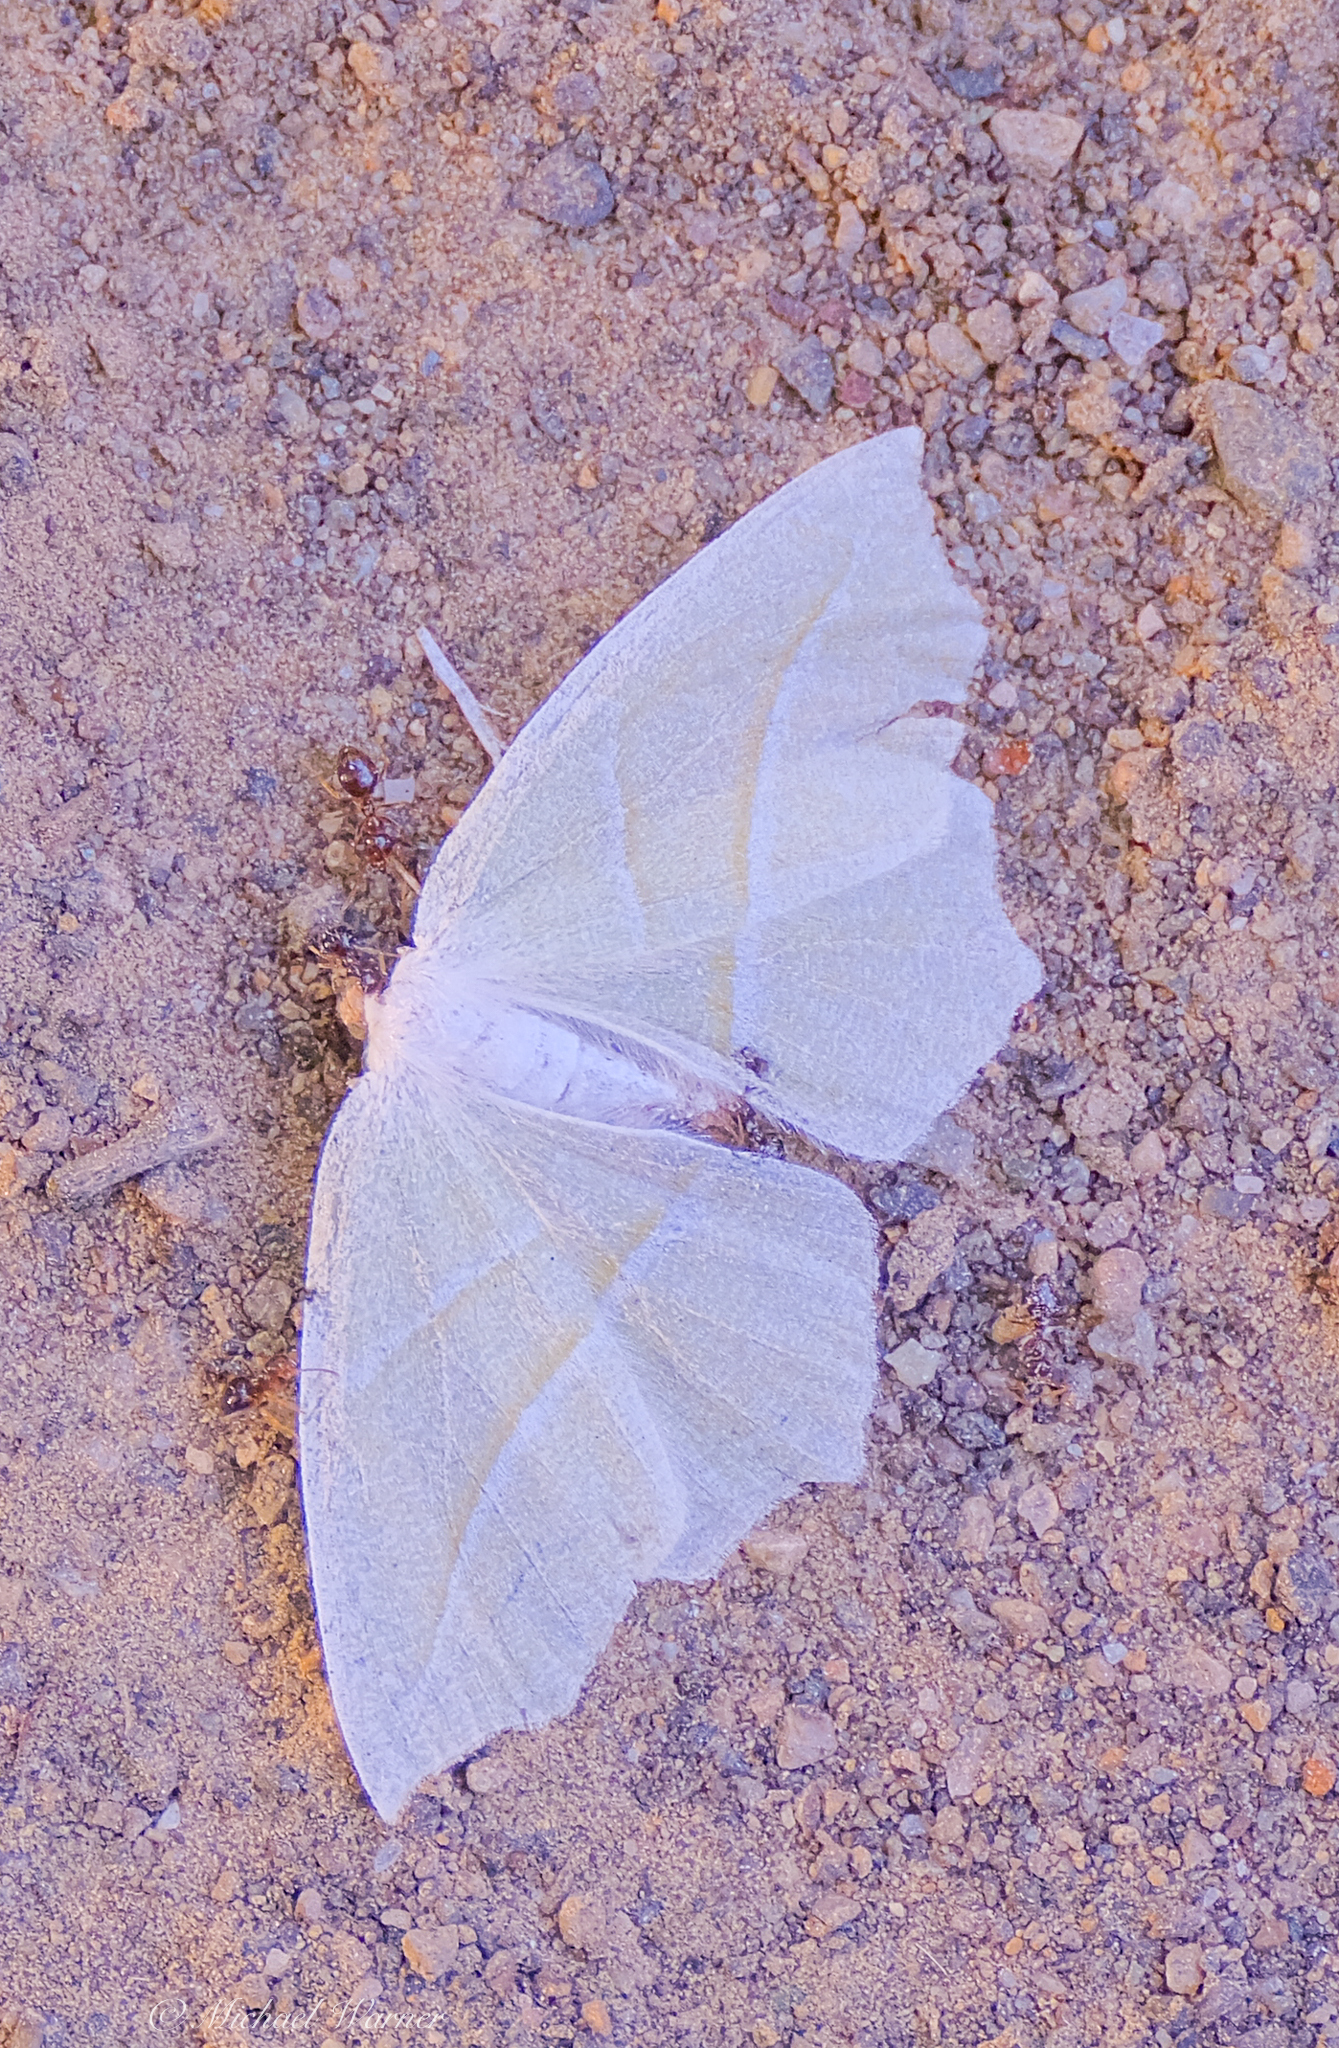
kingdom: Animalia
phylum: Arthropoda
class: Insecta
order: Lepidoptera
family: Geometridae
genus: Campaea
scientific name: Campaea perlata
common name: Fringed looper
